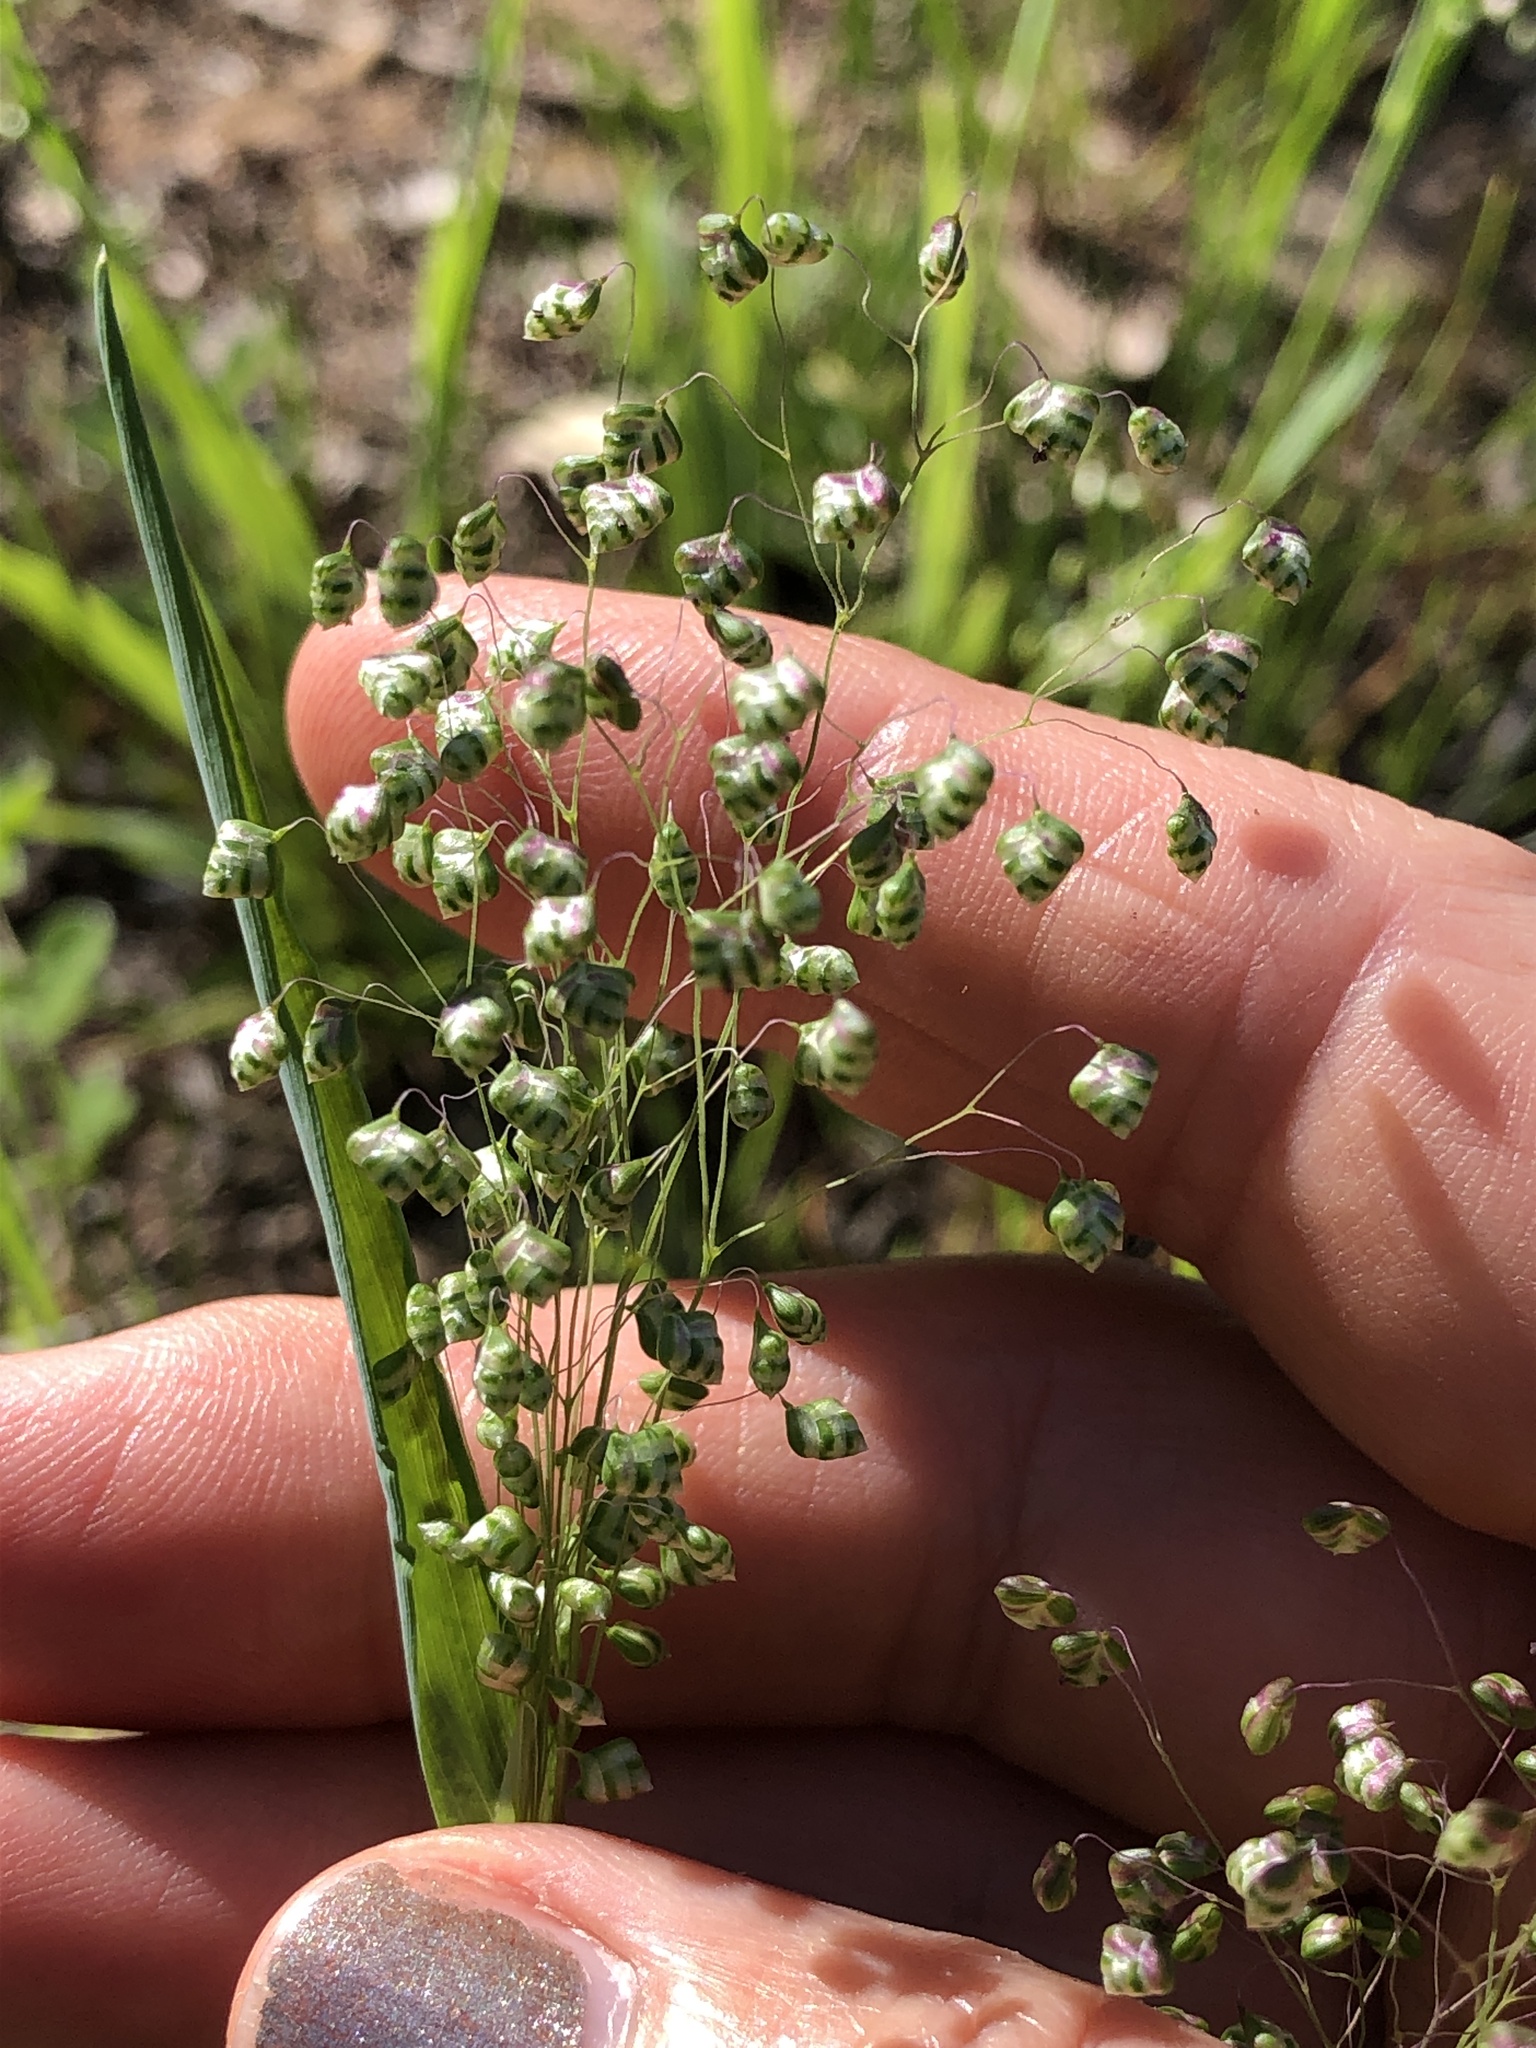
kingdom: Plantae
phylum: Tracheophyta
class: Liliopsida
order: Poales
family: Poaceae
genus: Briza
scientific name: Briza minor
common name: Lesser quaking-grass
